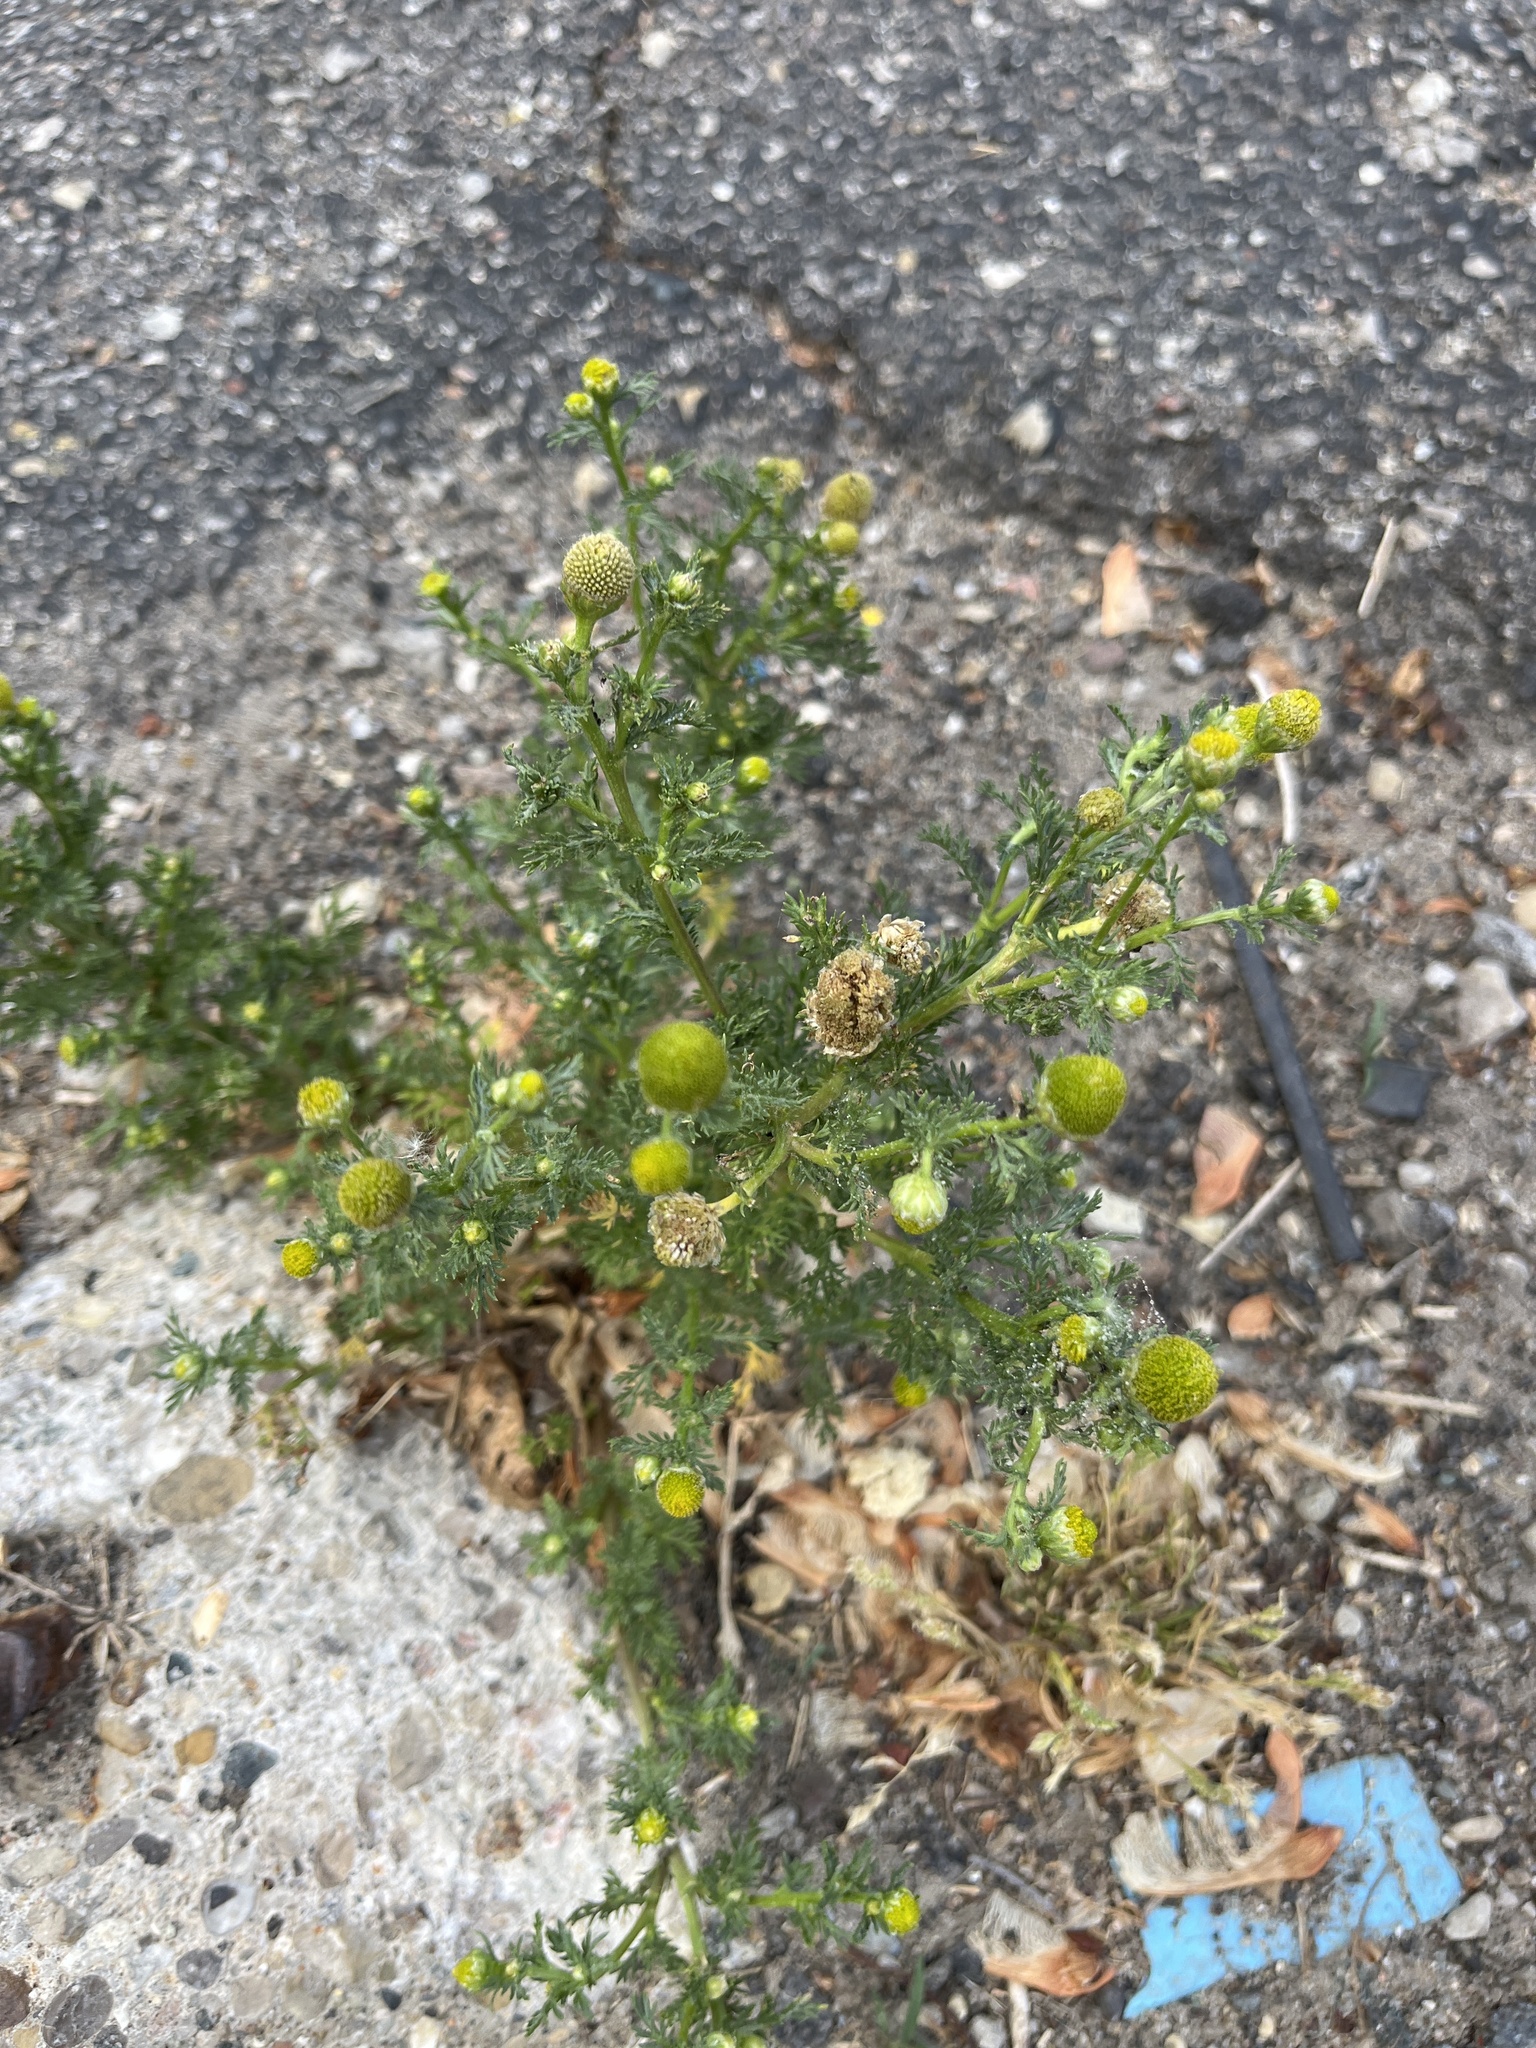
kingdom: Plantae
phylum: Tracheophyta
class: Magnoliopsida
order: Asterales
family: Asteraceae
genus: Matricaria
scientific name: Matricaria discoidea
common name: Disc mayweed
